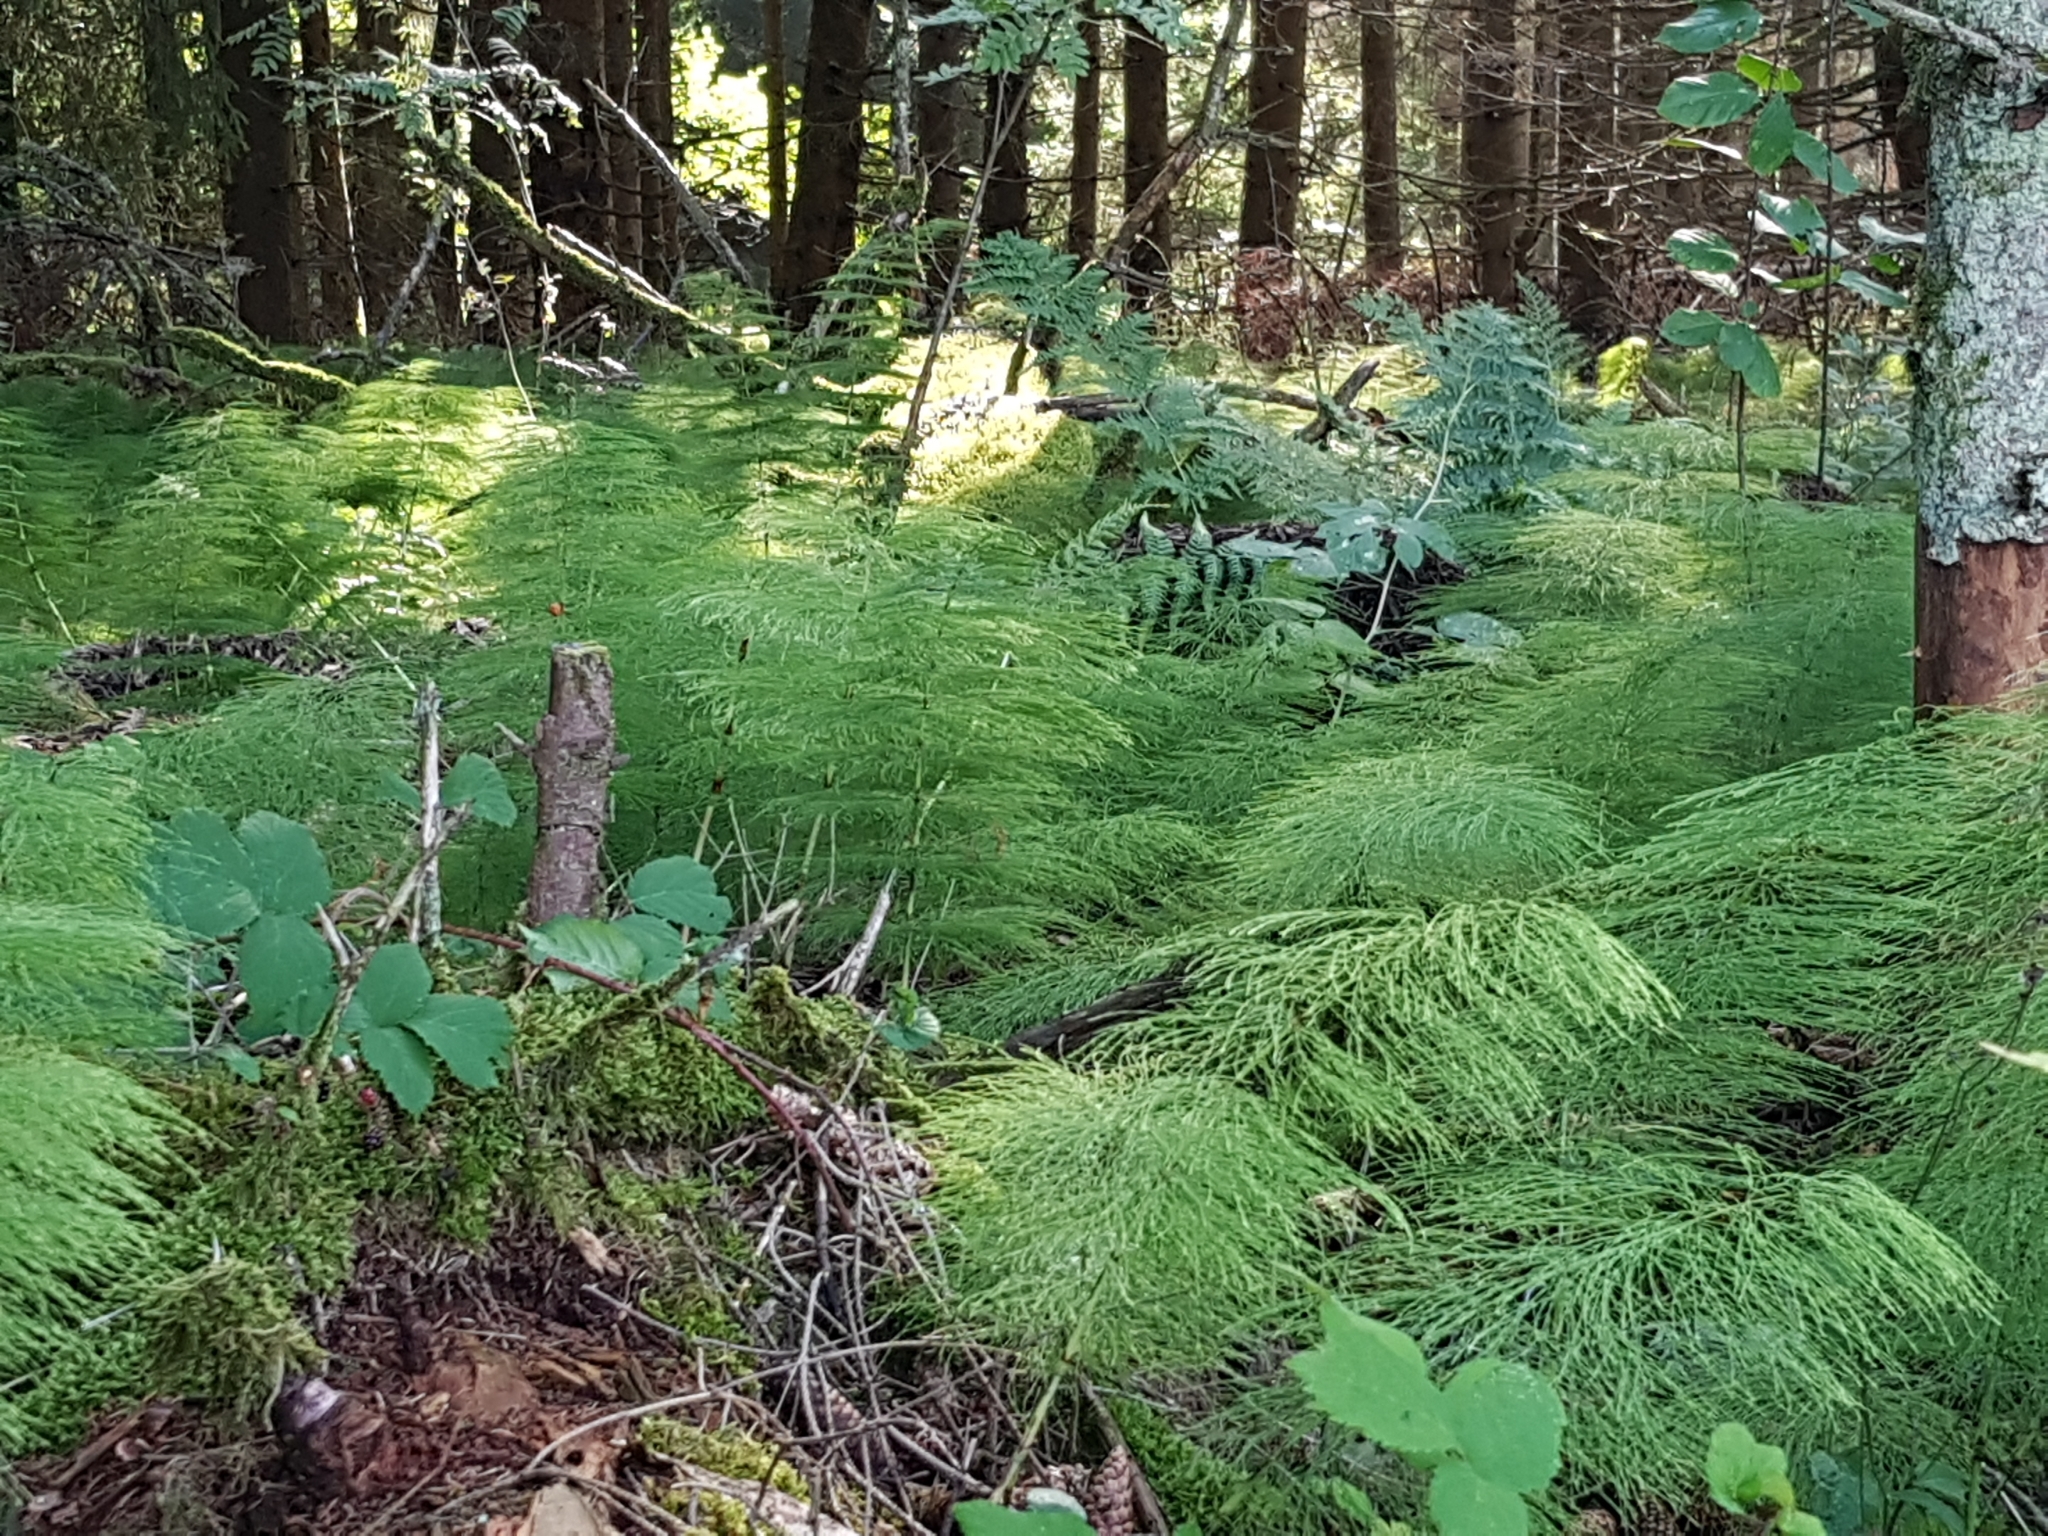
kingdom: Plantae
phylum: Tracheophyta
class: Polypodiopsida
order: Equisetales
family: Equisetaceae
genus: Equisetum
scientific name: Equisetum sylvaticum
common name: Wood horsetail
